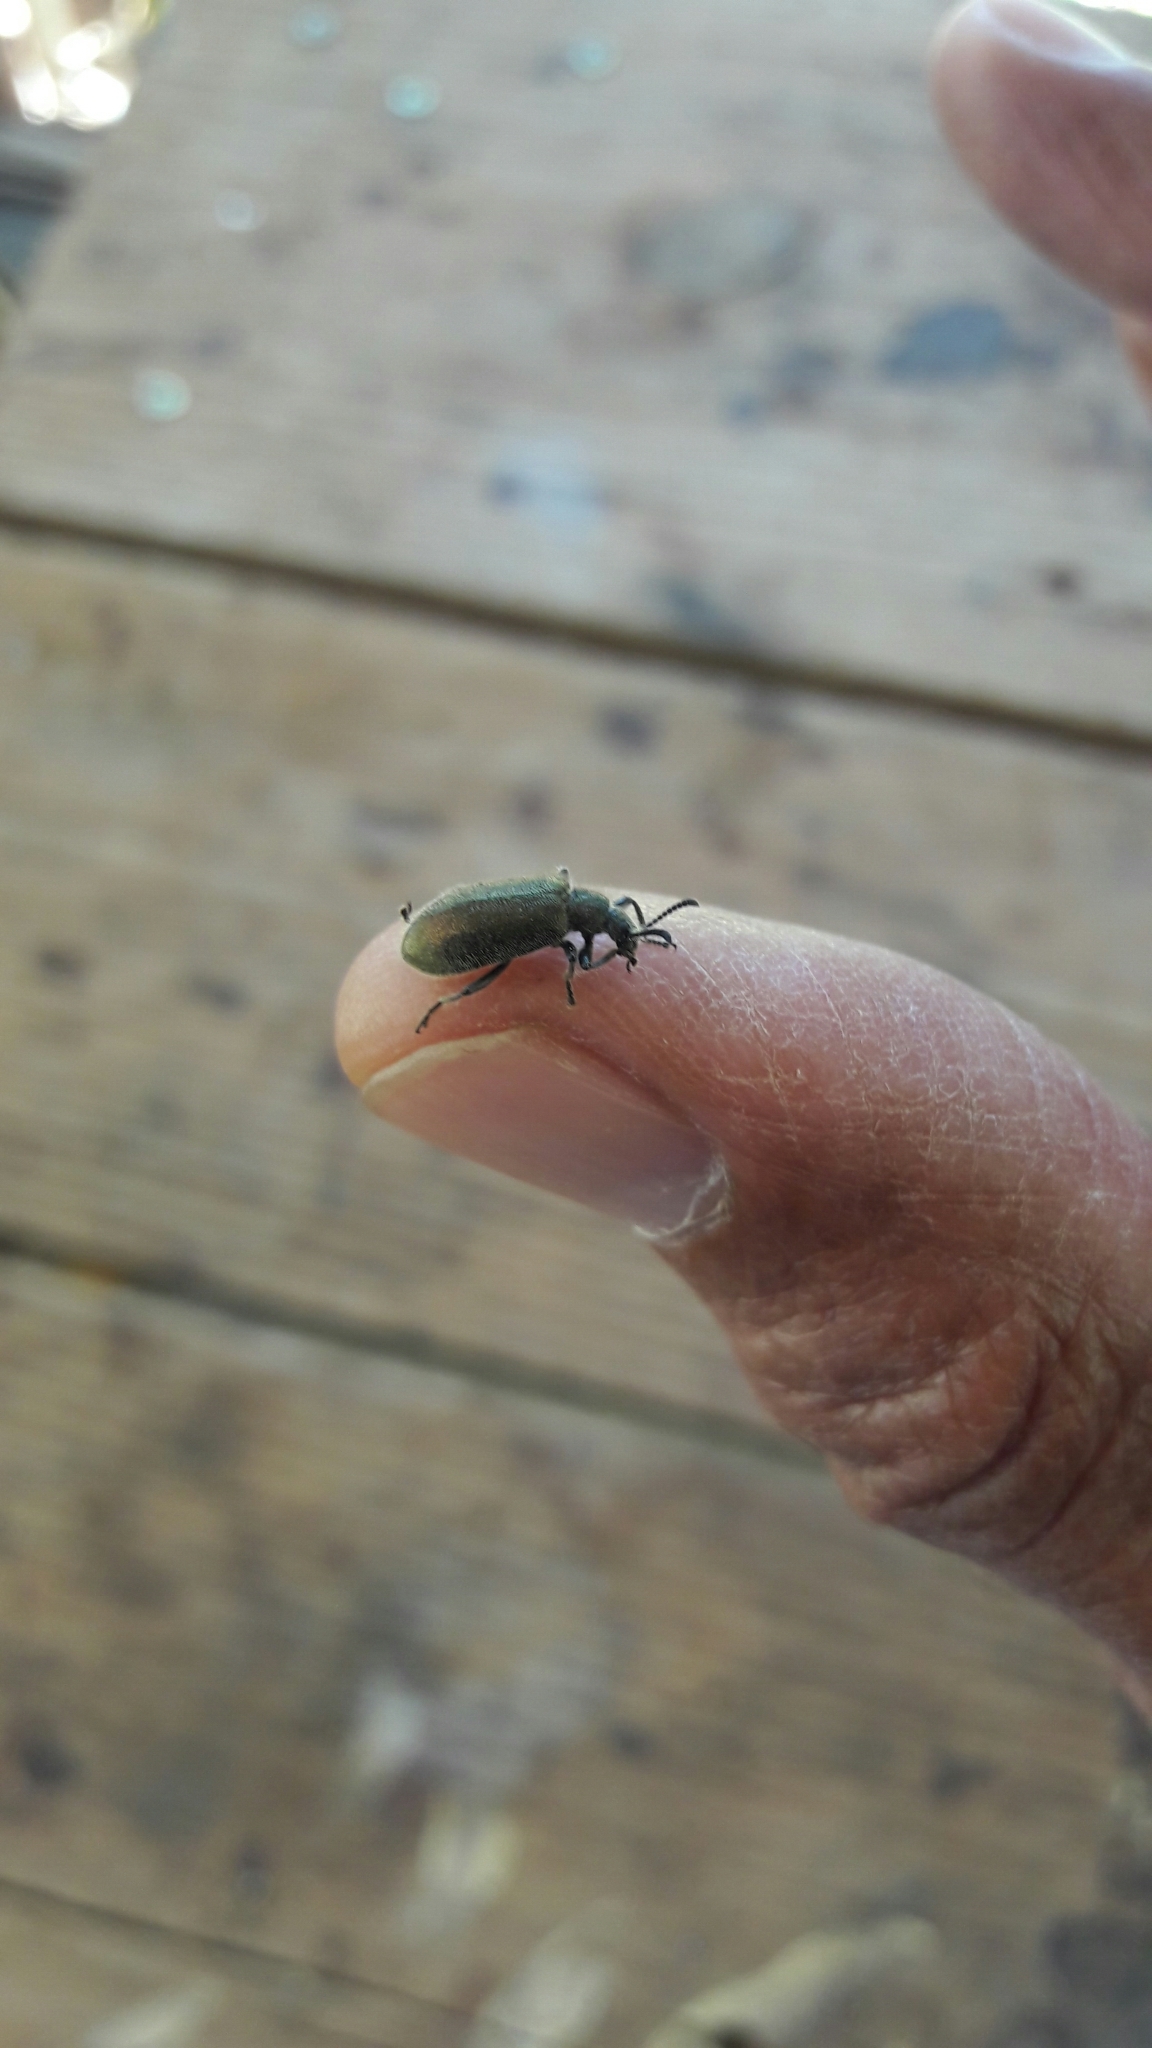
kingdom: Animalia
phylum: Arthropoda
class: Insecta
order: Coleoptera
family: Tenebrionidae
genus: Lagria
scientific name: Lagria villosa
